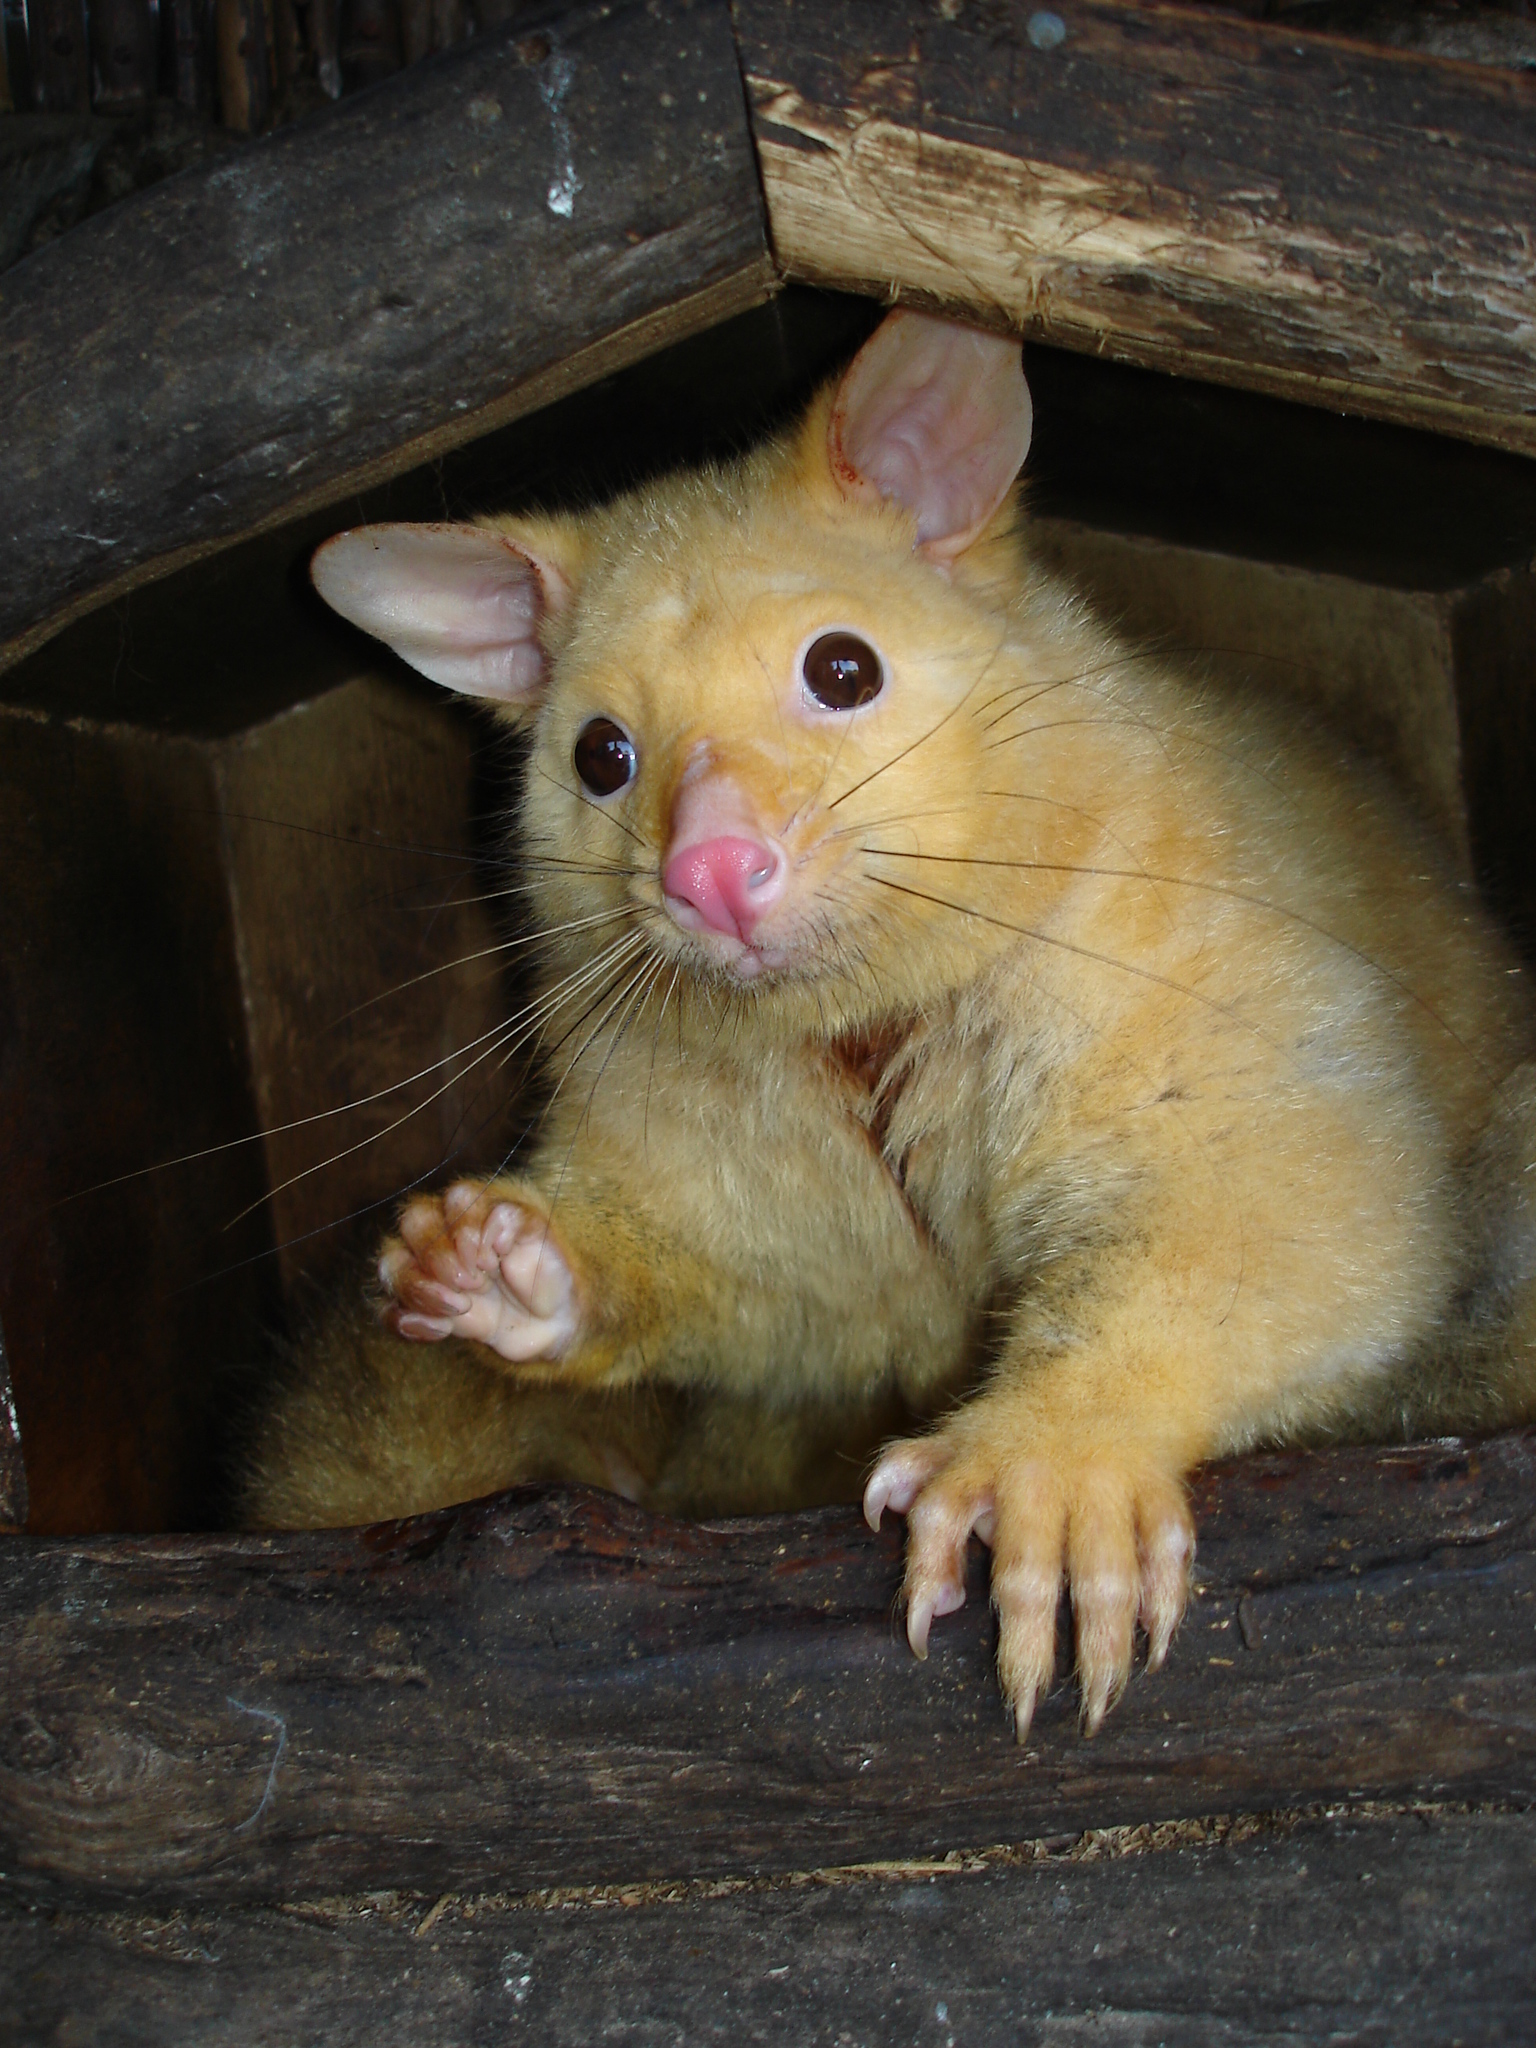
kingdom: Animalia
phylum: Chordata
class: Mammalia
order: Diprotodontia
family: Phalangeridae
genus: Trichosurus
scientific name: Trichosurus vulpecula
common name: Common brushtail
